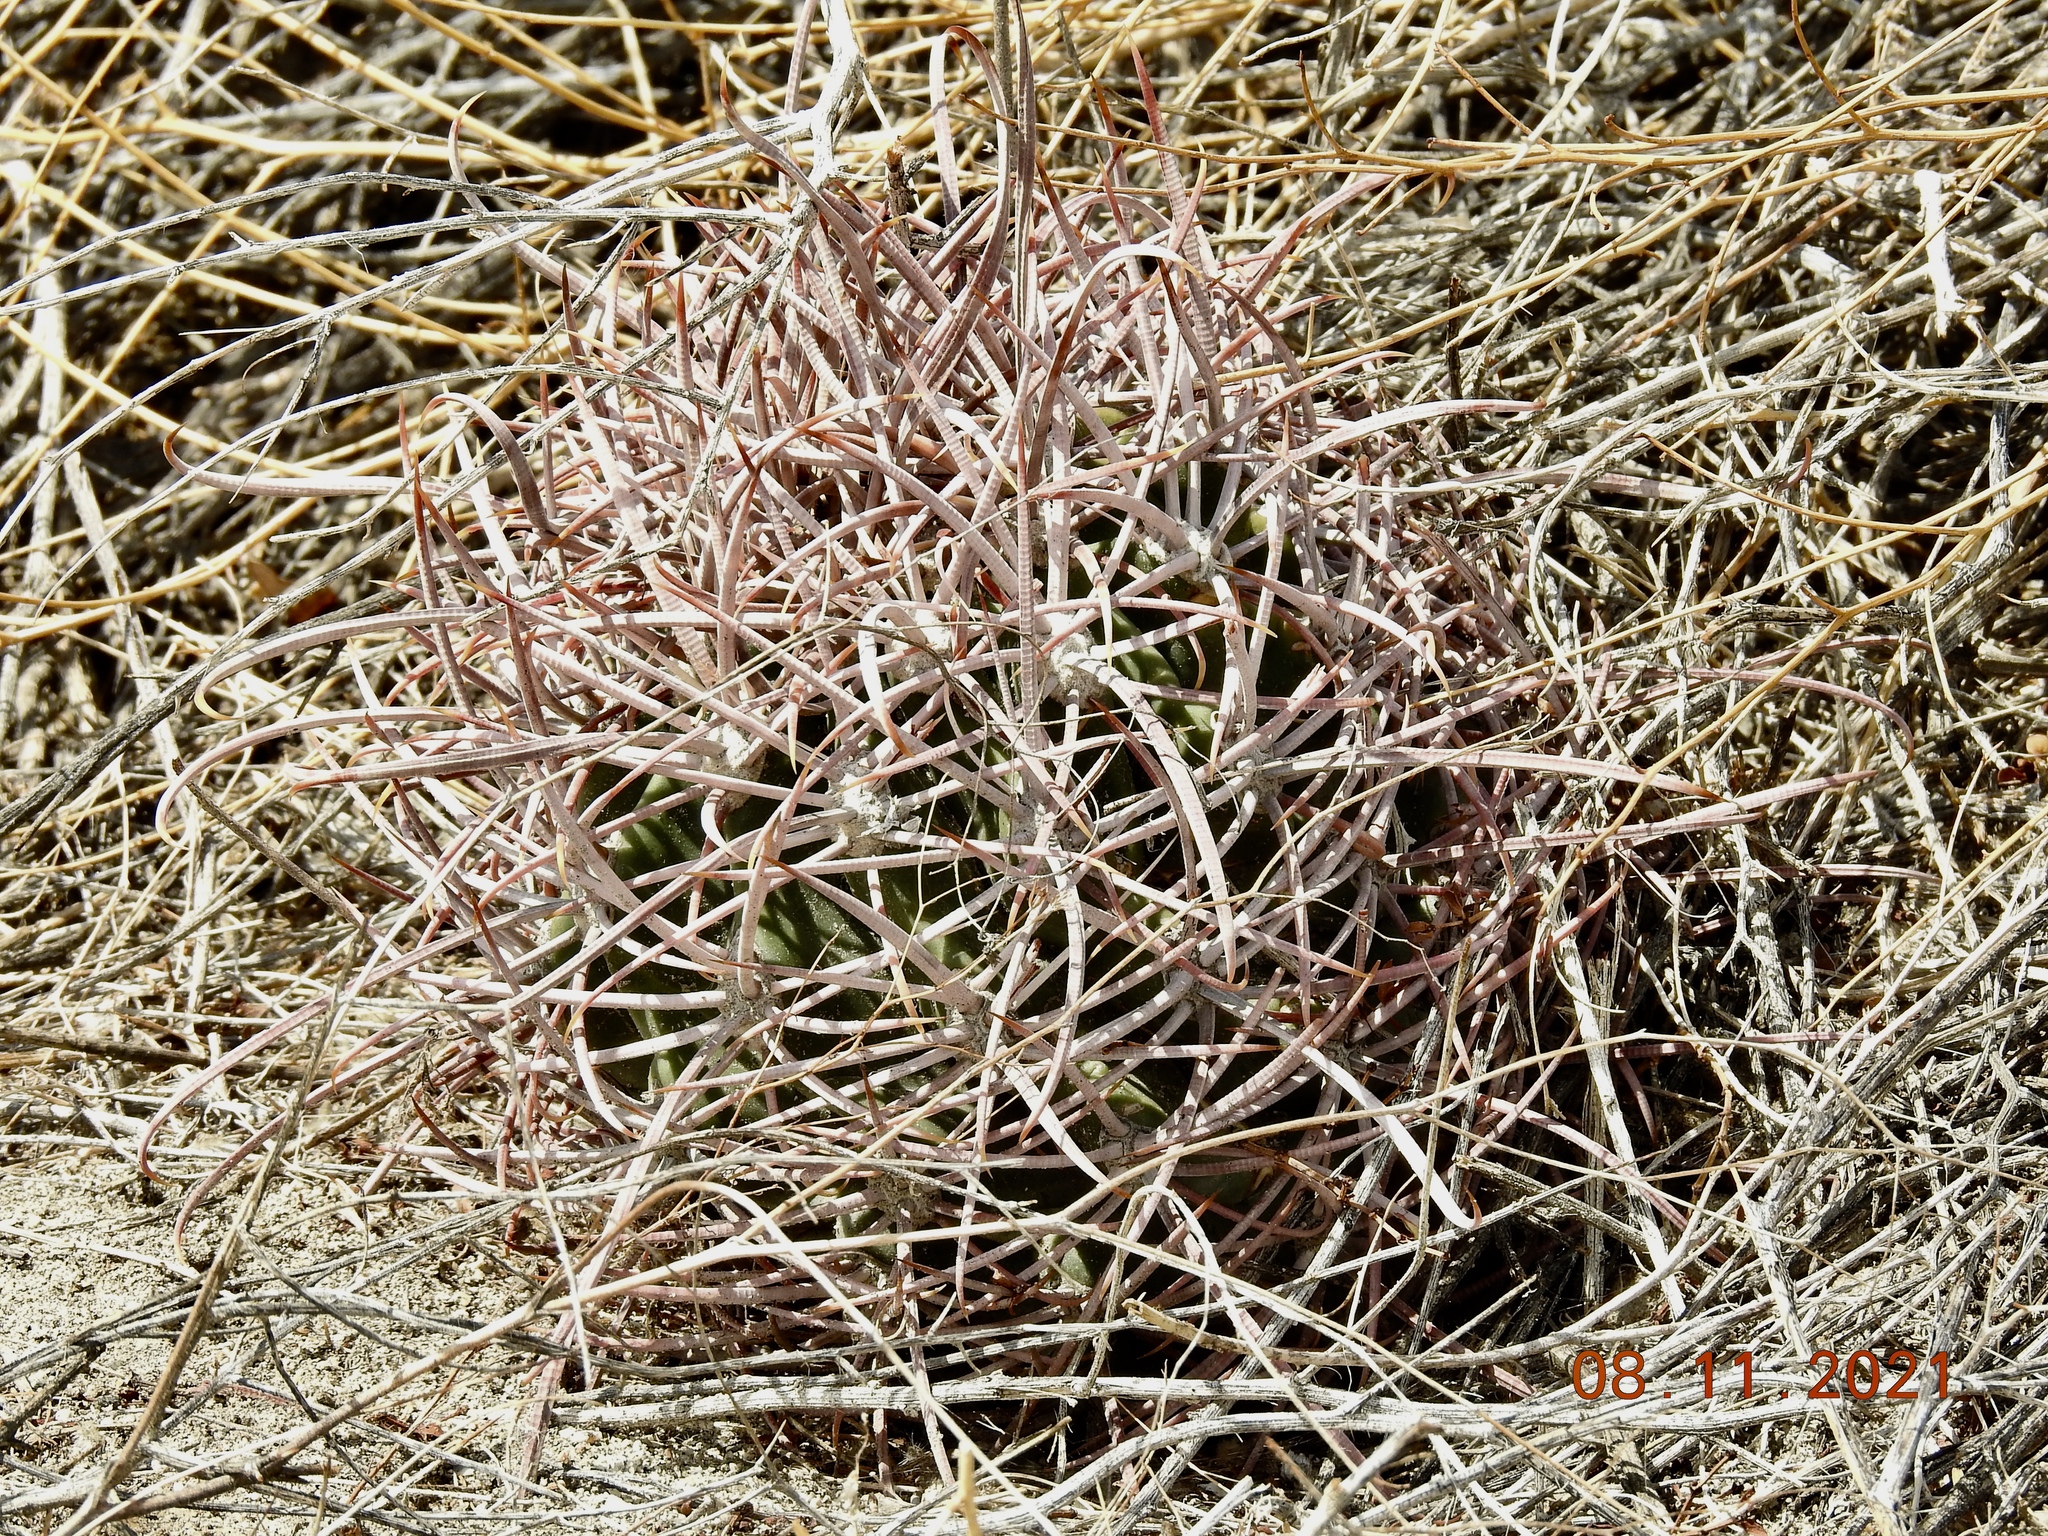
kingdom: Plantae
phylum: Tracheophyta
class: Magnoliopsida
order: Caryophyllales
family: Cactaceae
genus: Ferocactus
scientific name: Ferocactus cylindraceus
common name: California barrel cactus
